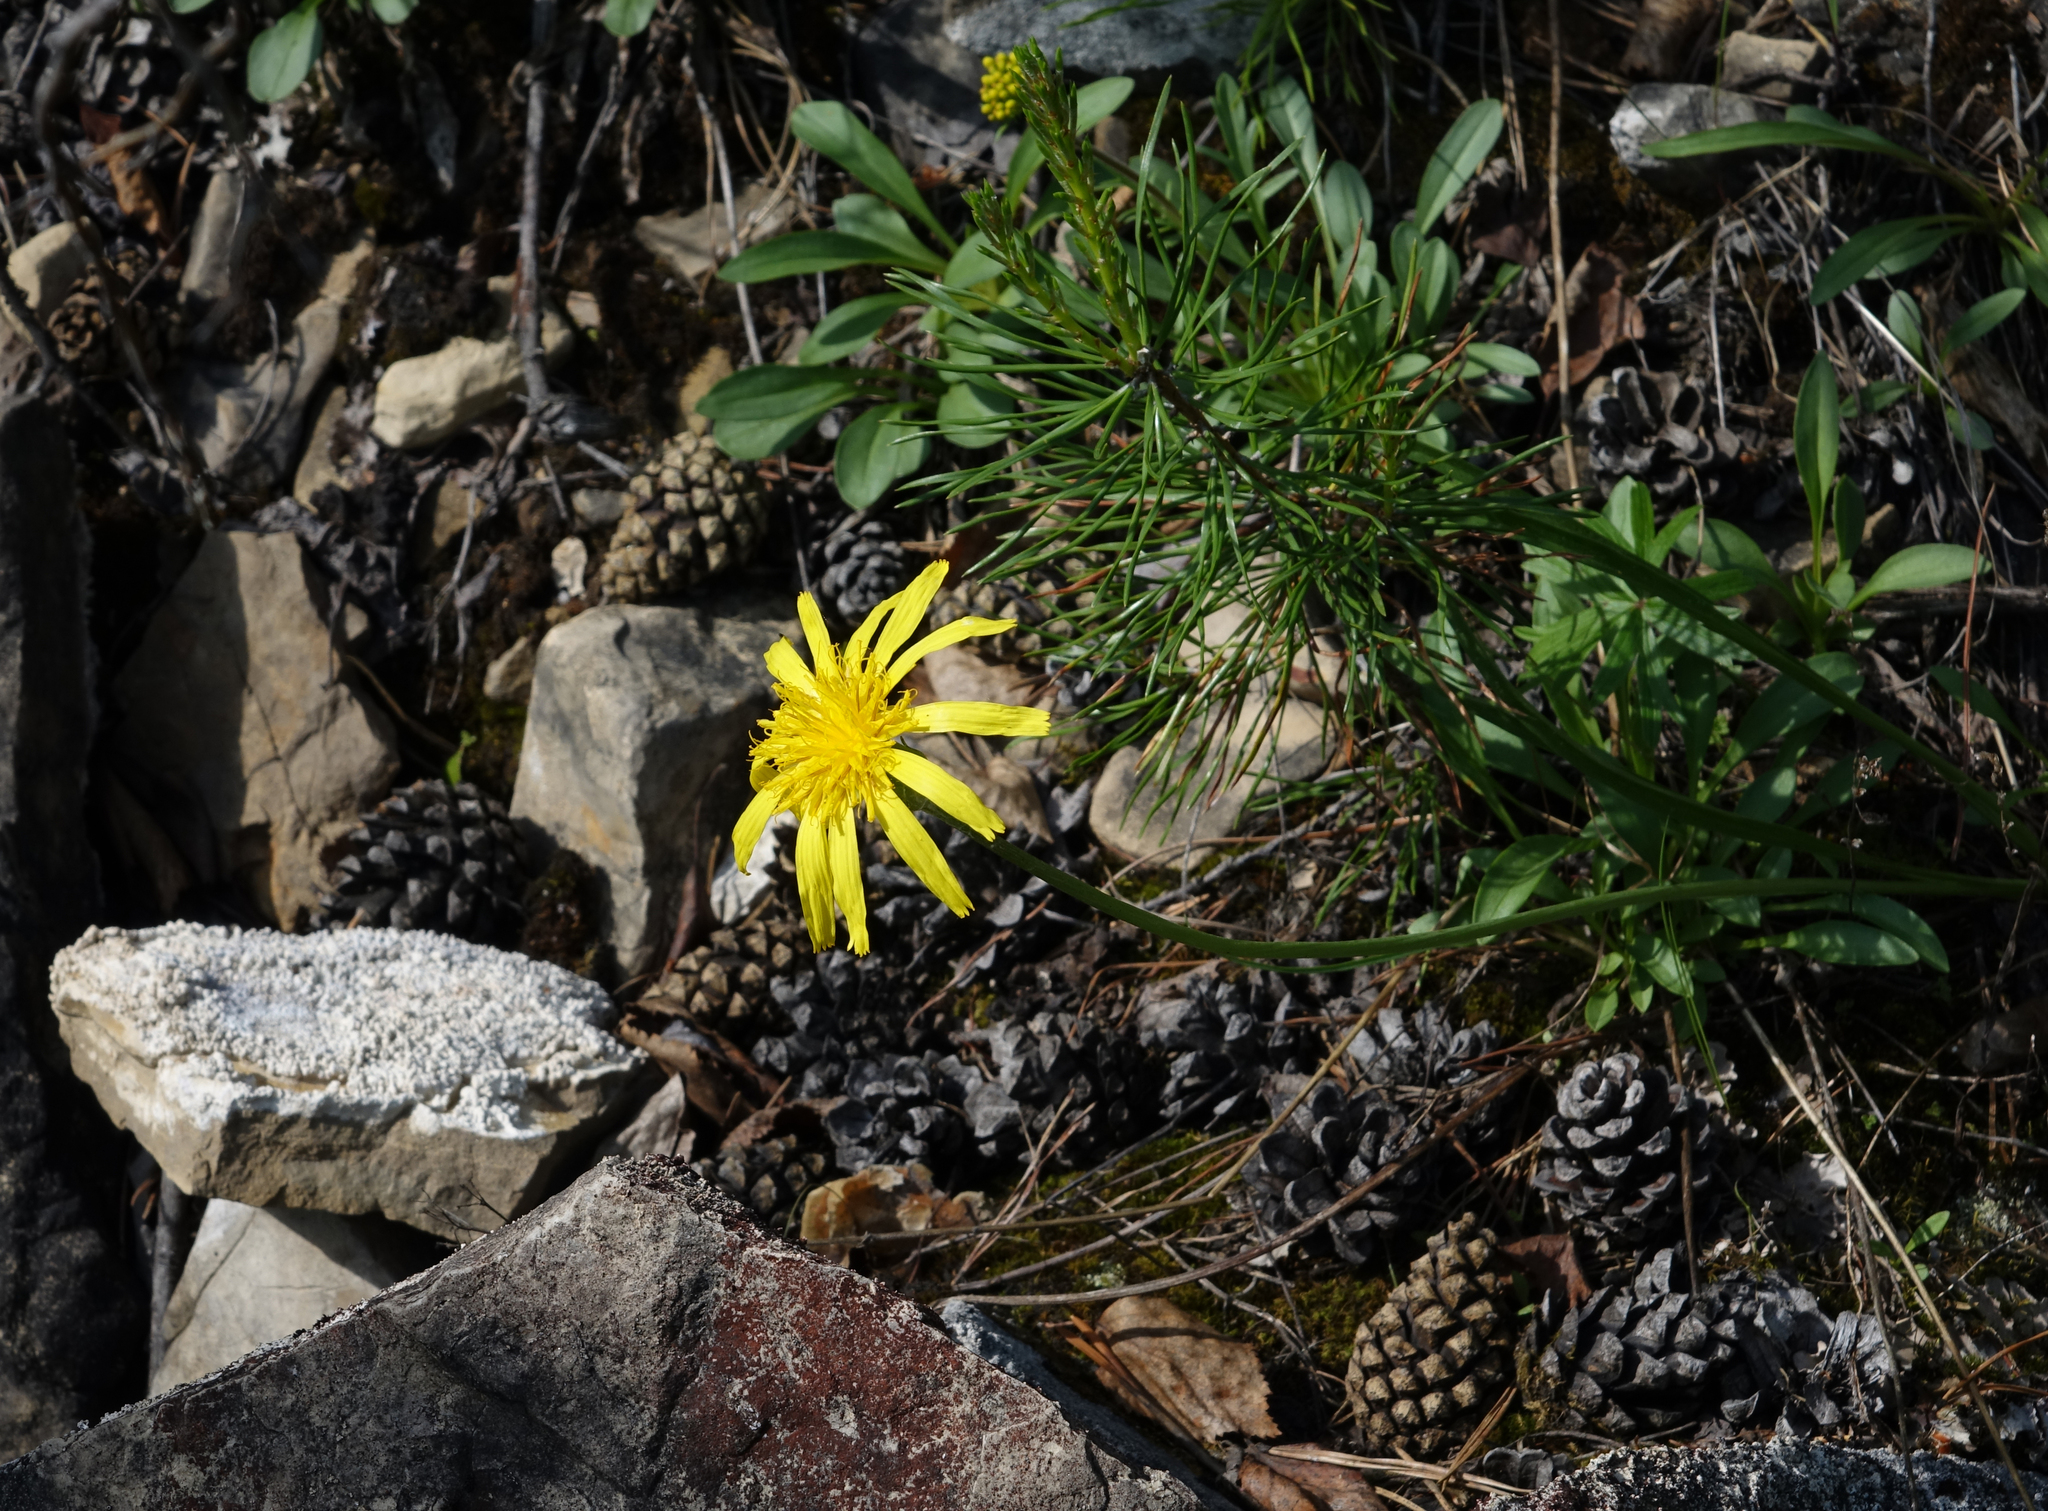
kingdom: Plantae
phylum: Tracheophyta
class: Magnoliopsida
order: Asterales
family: Asteraceae
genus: Scorzonera
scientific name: Scorzonera radiata
